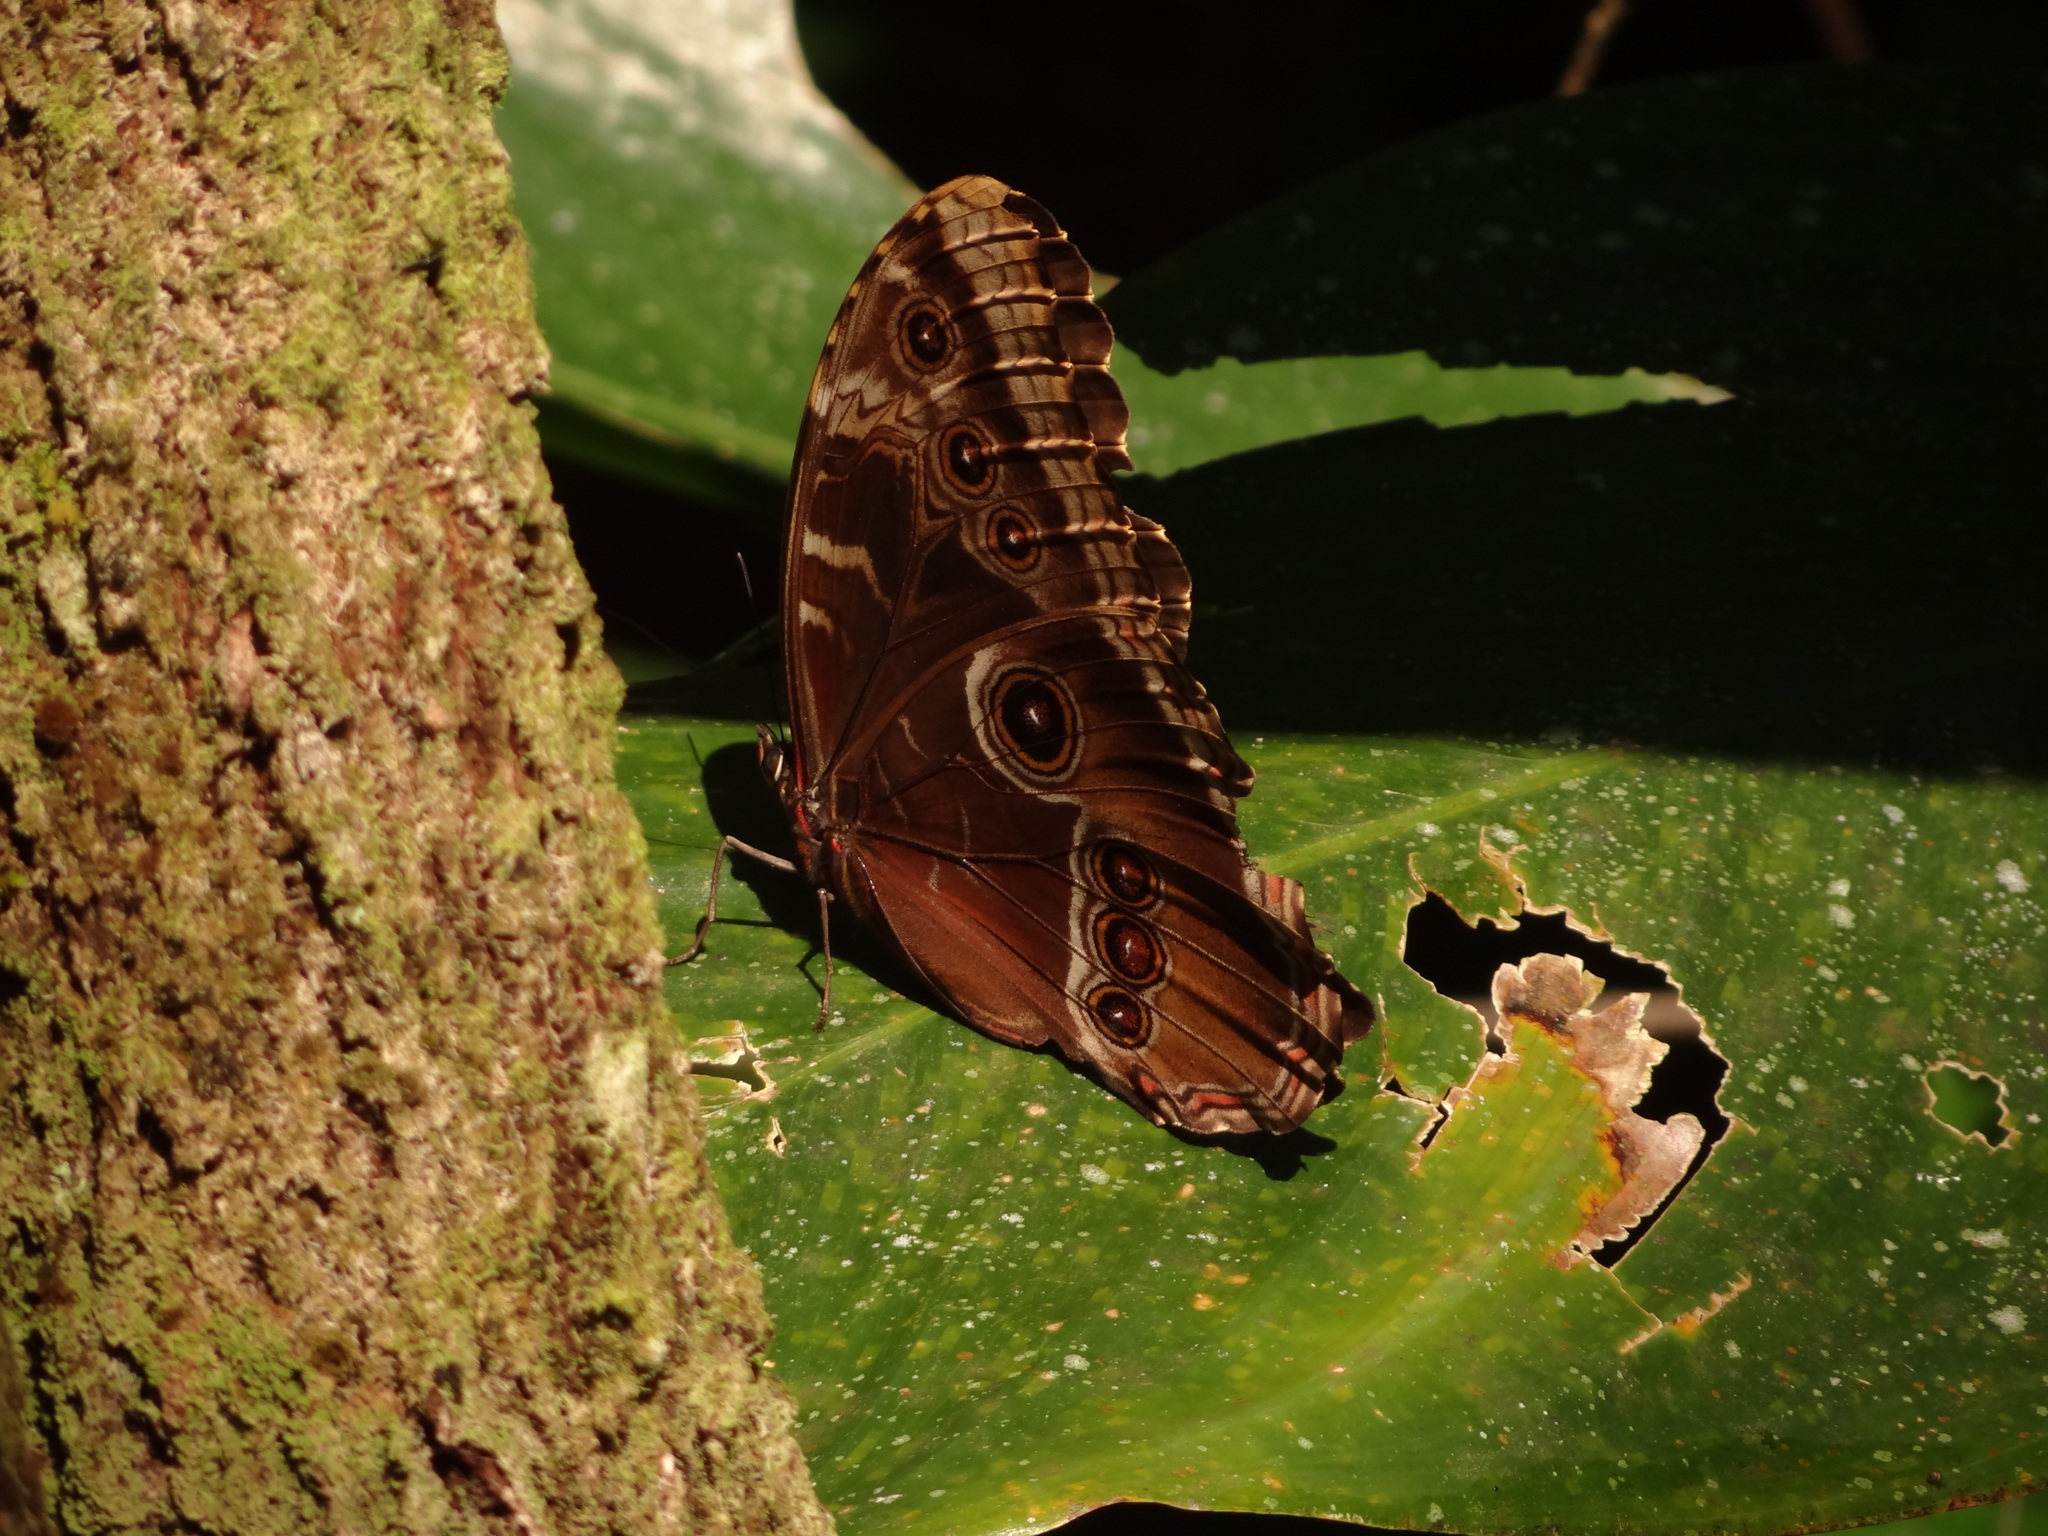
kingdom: Animalia
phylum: Arthropoda
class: Insecta
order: Lepidoptera
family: Nymphalidae
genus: Morpho
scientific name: Morpho helenor
